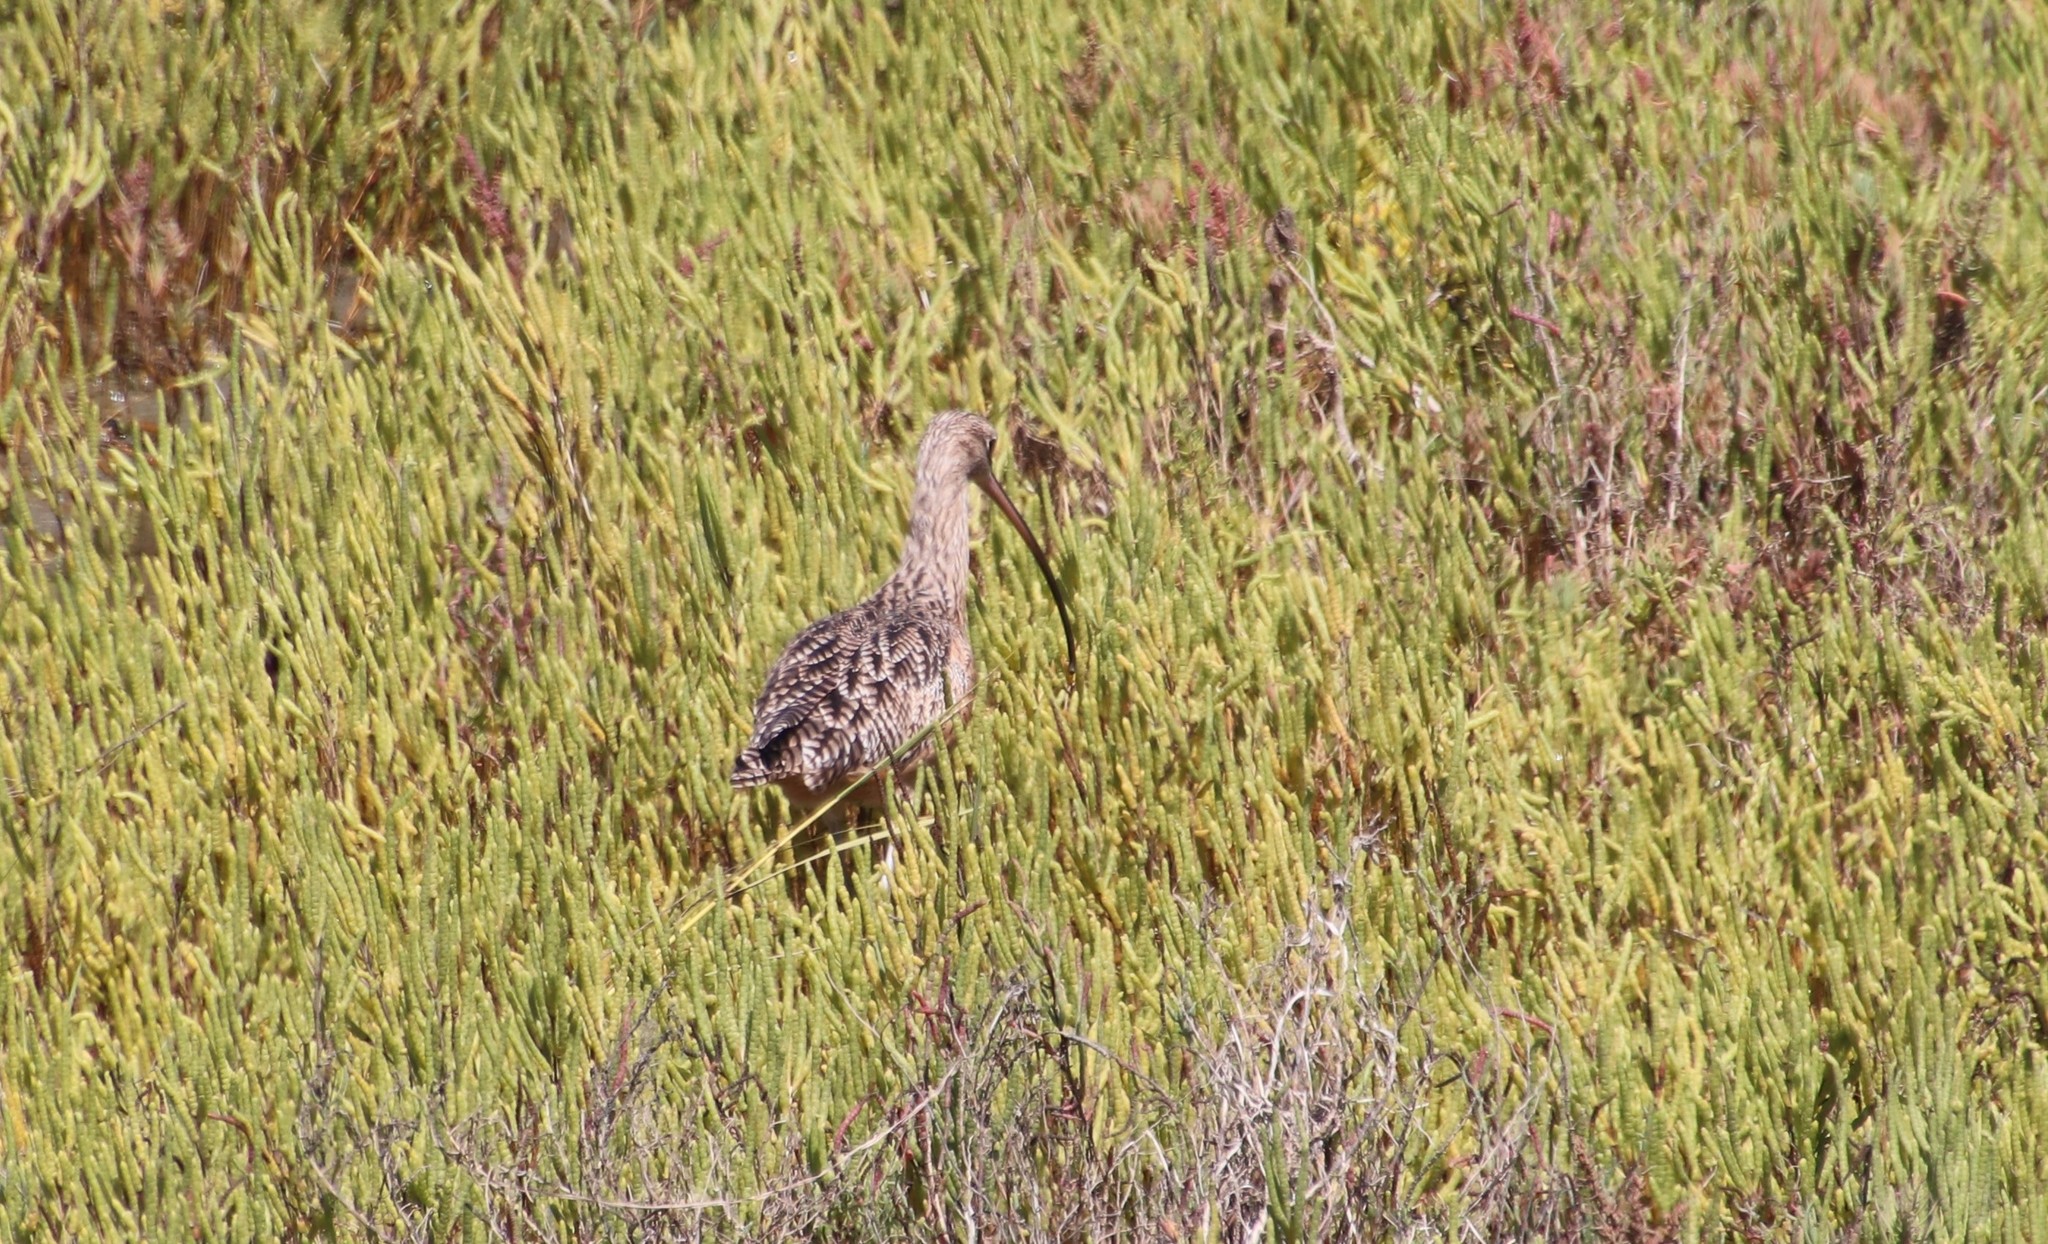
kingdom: Animalia
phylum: Chordata
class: Aves
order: Charadriiformes
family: Scolopacidae
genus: Numenius
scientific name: Numenius americanus
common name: Long-billed curlew
